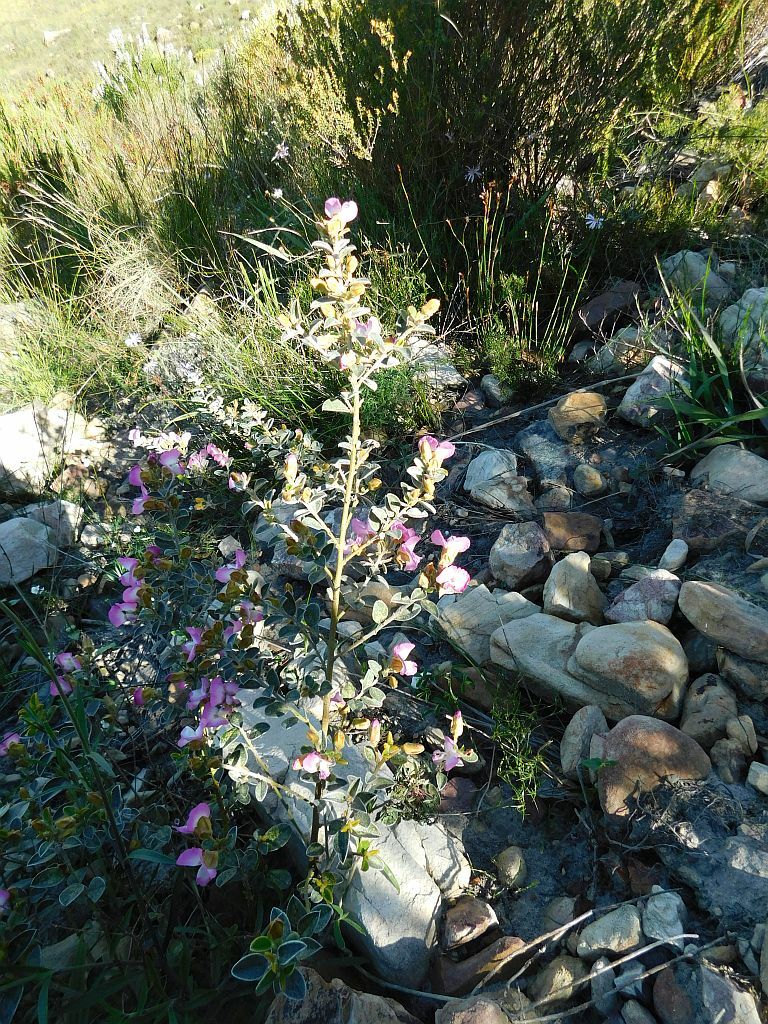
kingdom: Plantae
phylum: Tracheophyta
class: Magnoliopsida
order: Fabales
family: Fabaceae
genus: Podalyria
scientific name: Podalyria variabilis
